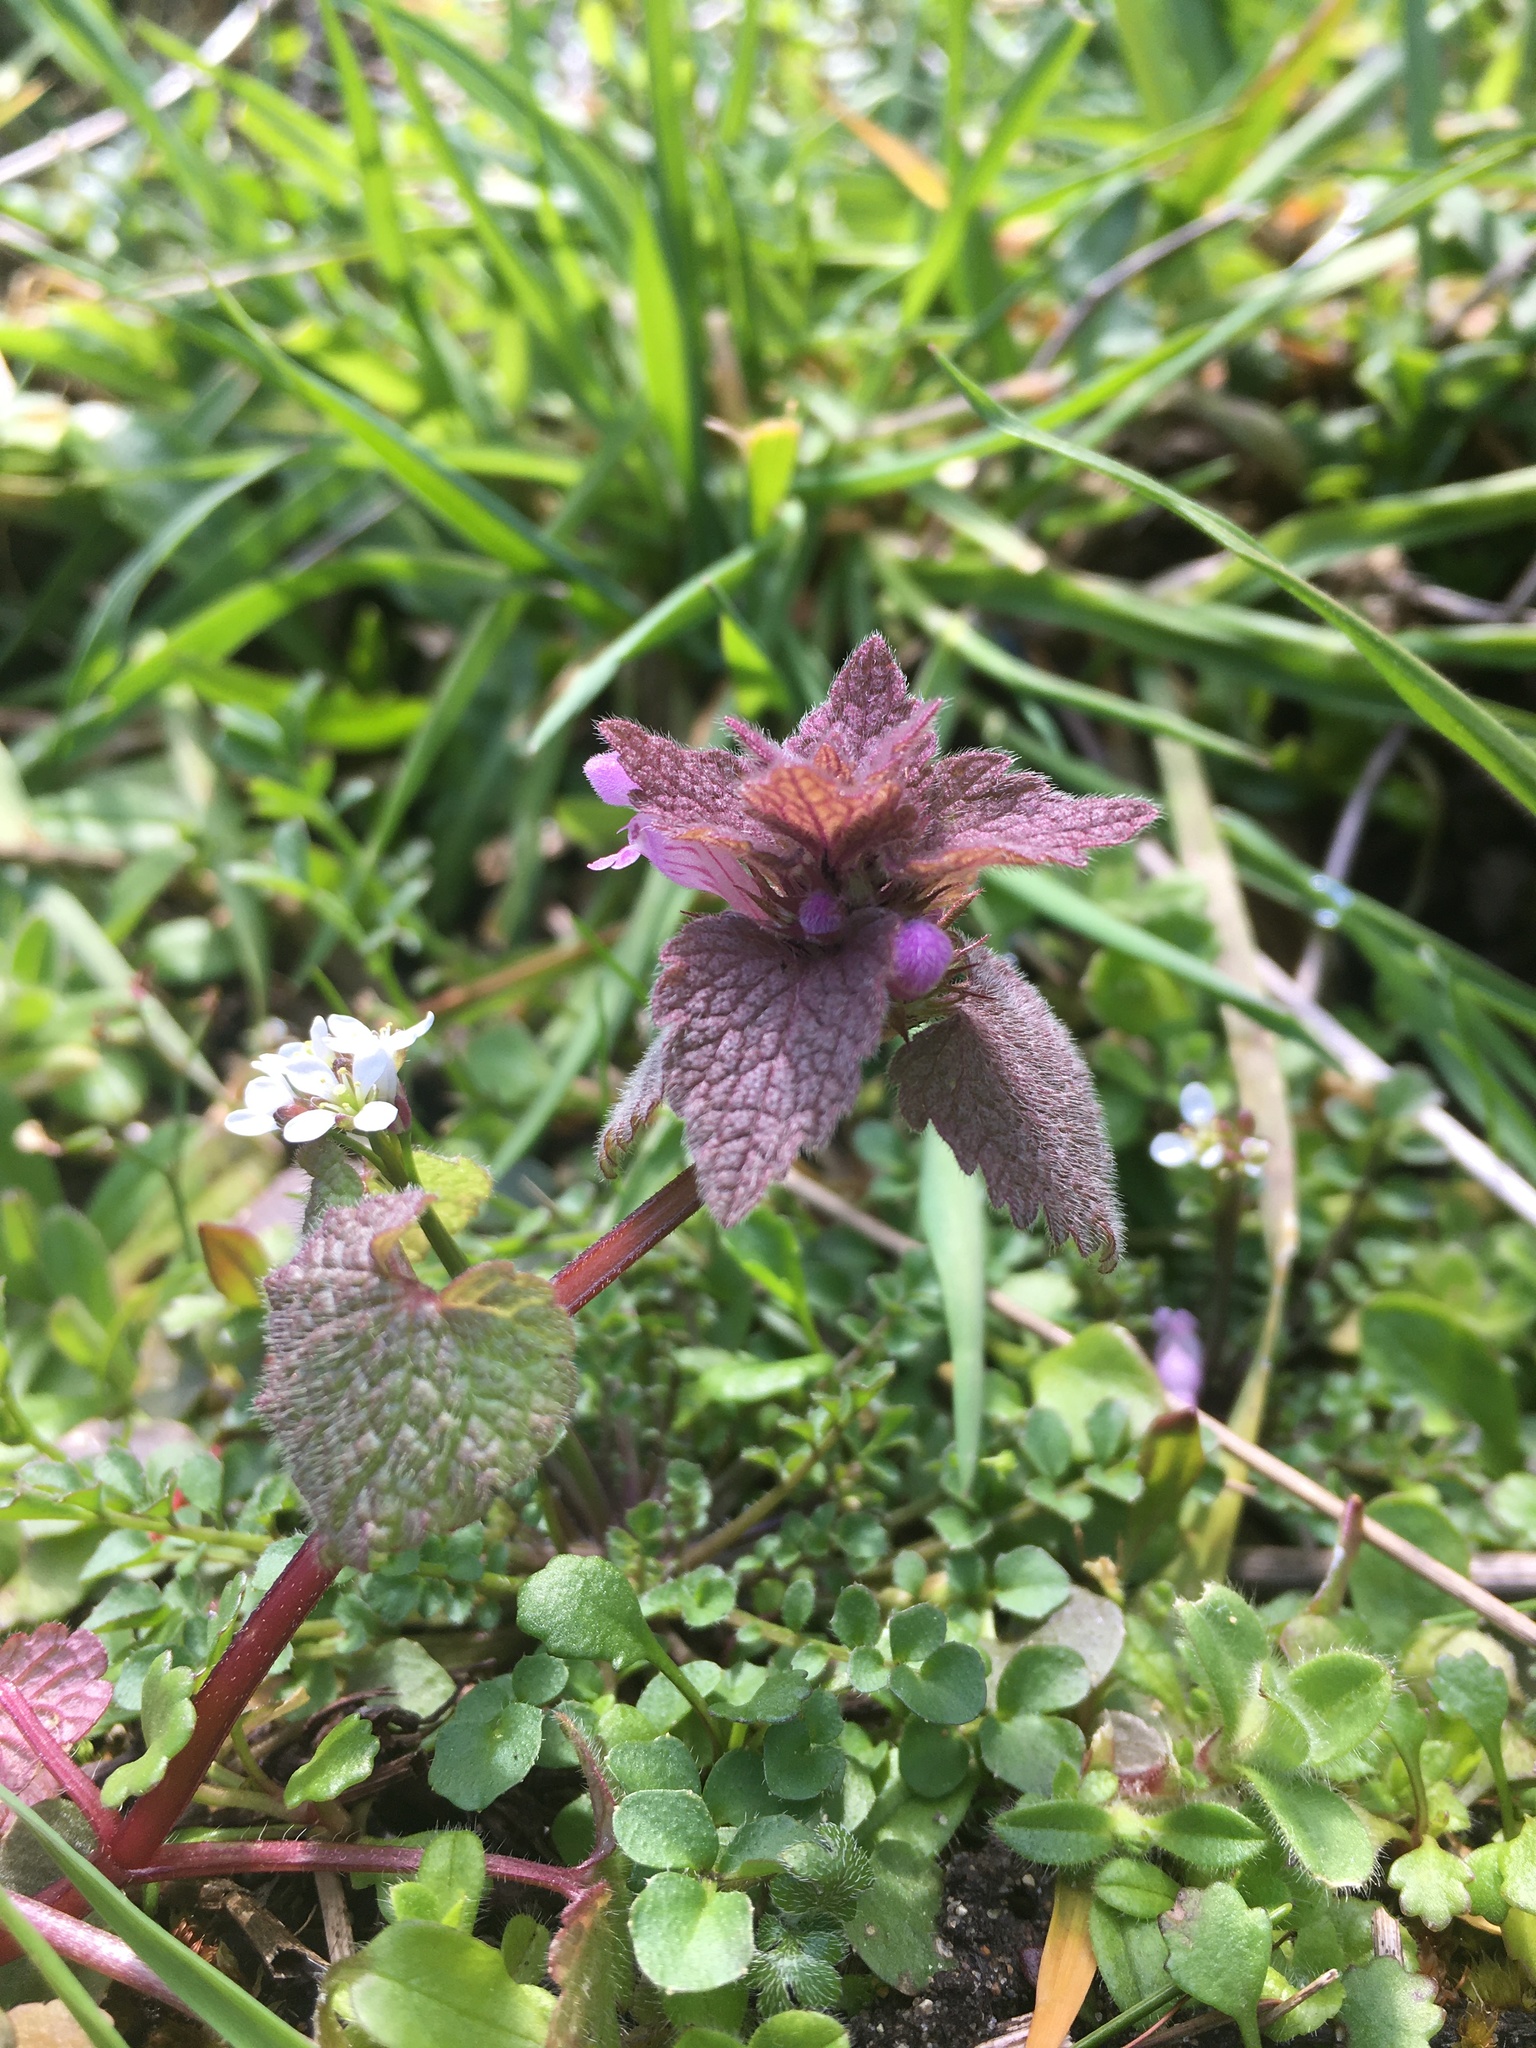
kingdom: Plantae
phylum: Tracheophyta
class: Magnoliopsida
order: Lamiales
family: Lamiaceae
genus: Lamium
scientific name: Lamium purpureum
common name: Red dead-nettle
